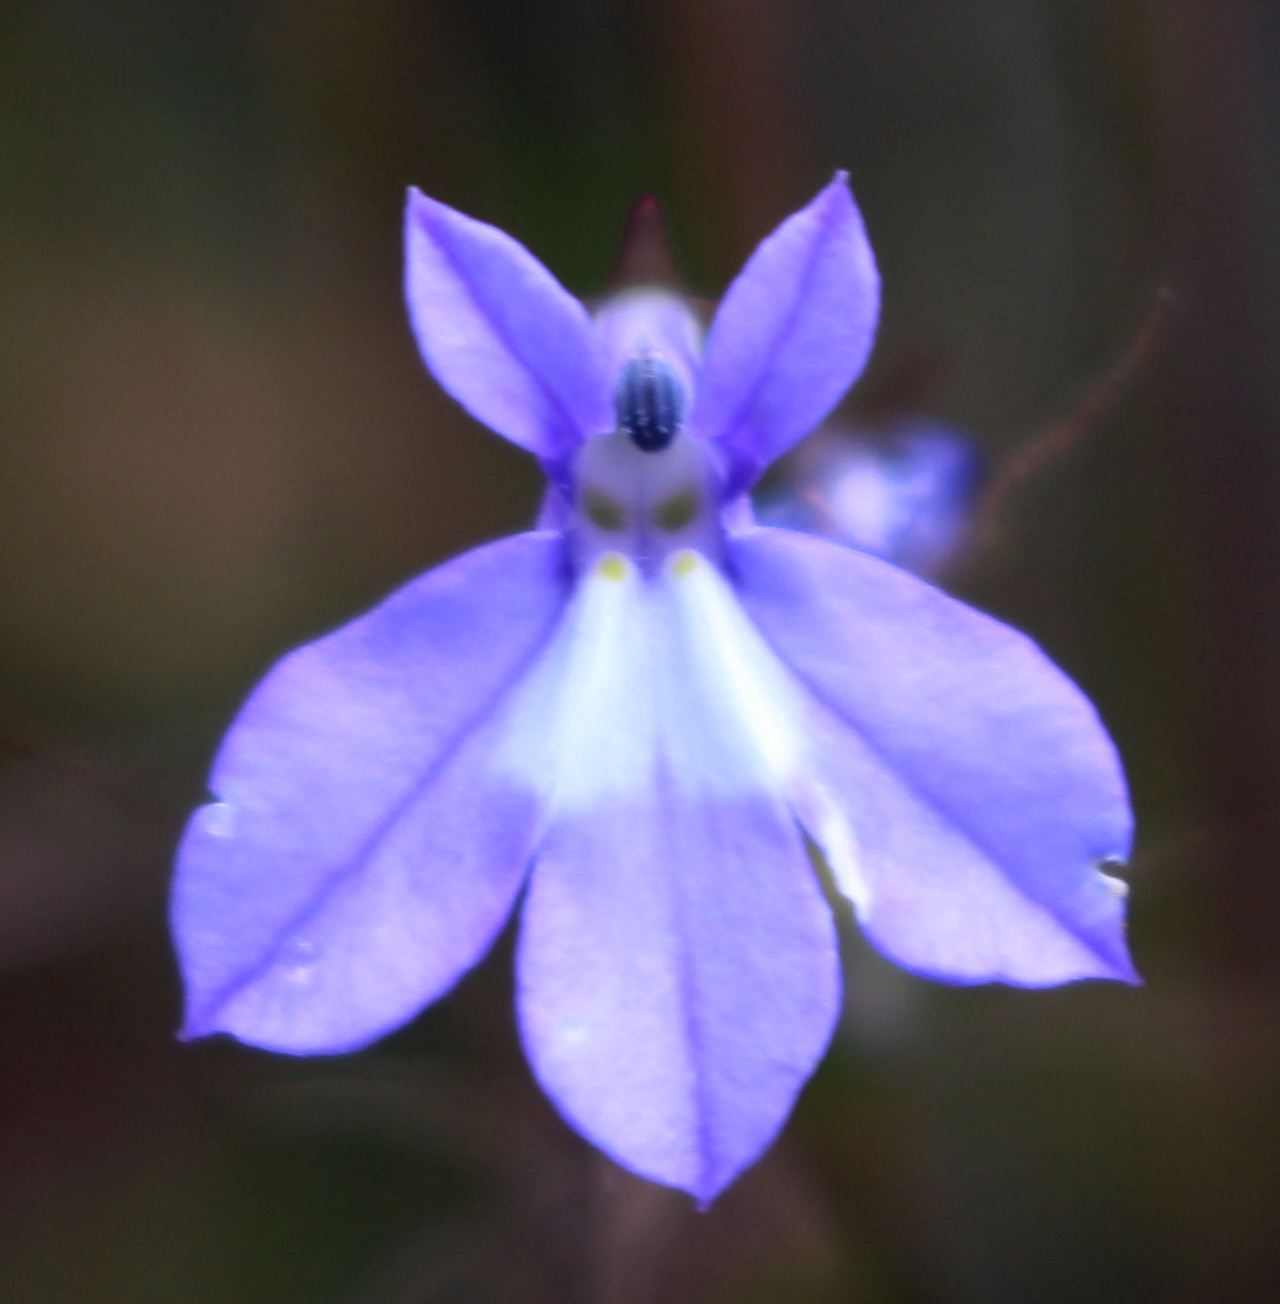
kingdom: Plantae
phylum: Tracheophyta
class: Magnoliopsida
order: Asterales
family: Campanulaceae
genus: Lobelia
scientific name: Lobelia kalmii
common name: Kalm's lobelia
